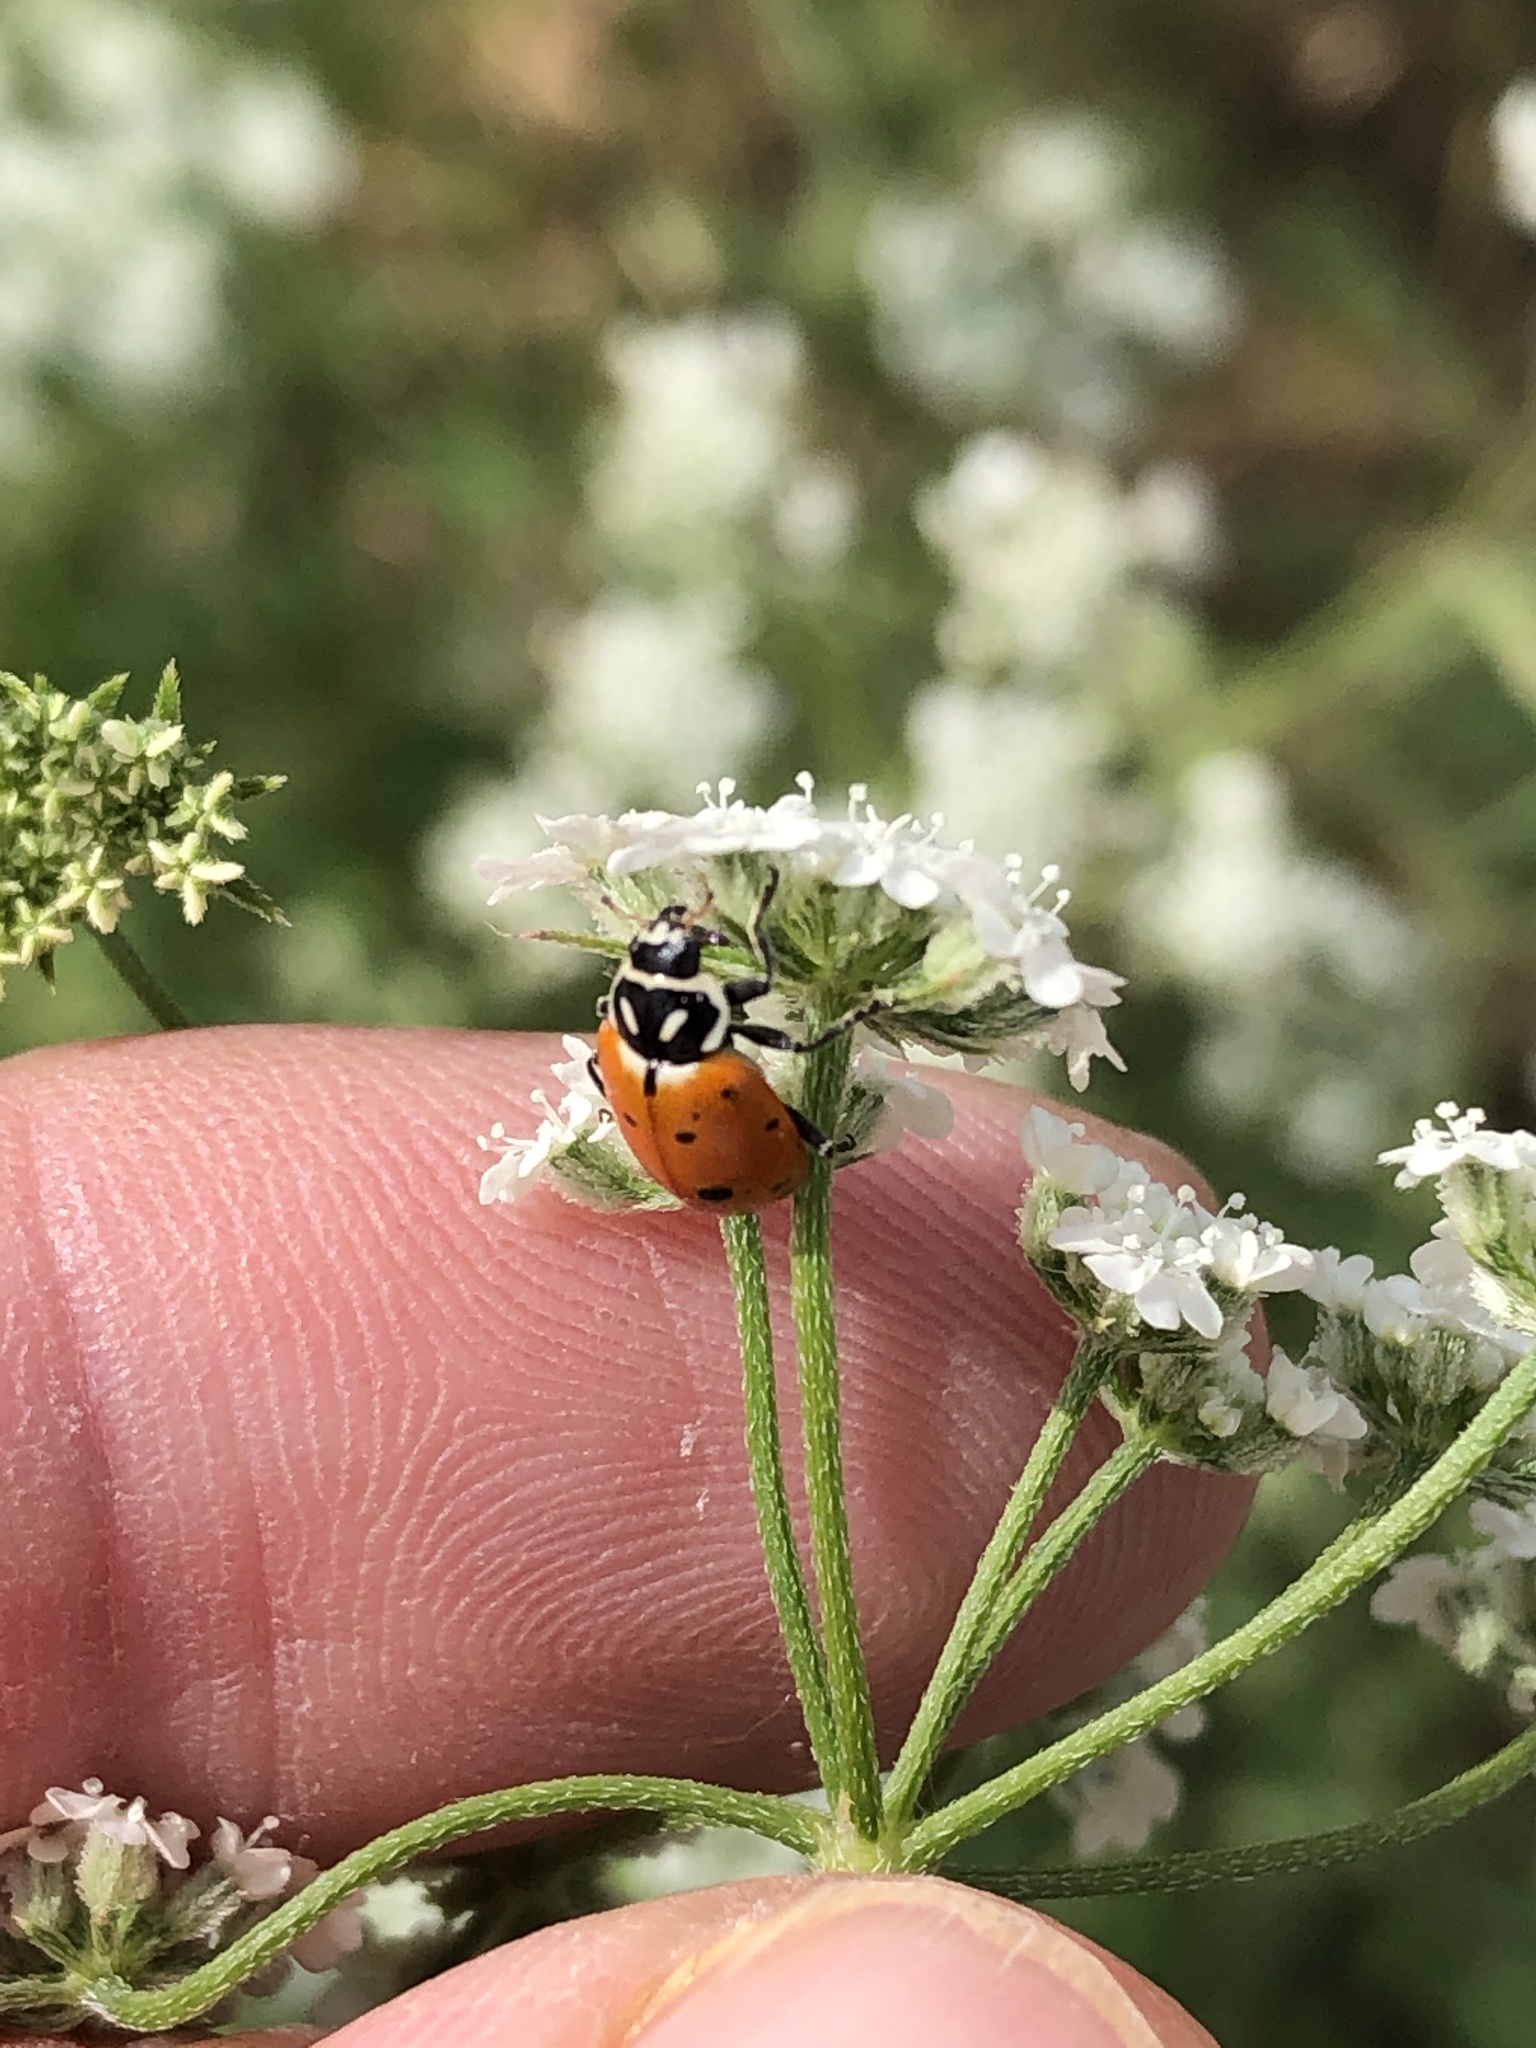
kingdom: Animalia
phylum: Arthropoda
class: Insecta
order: Coleoptera
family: Coccinellidae
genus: Hippodamia
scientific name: Hippodamia convergens
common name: Convergent lady beetle
